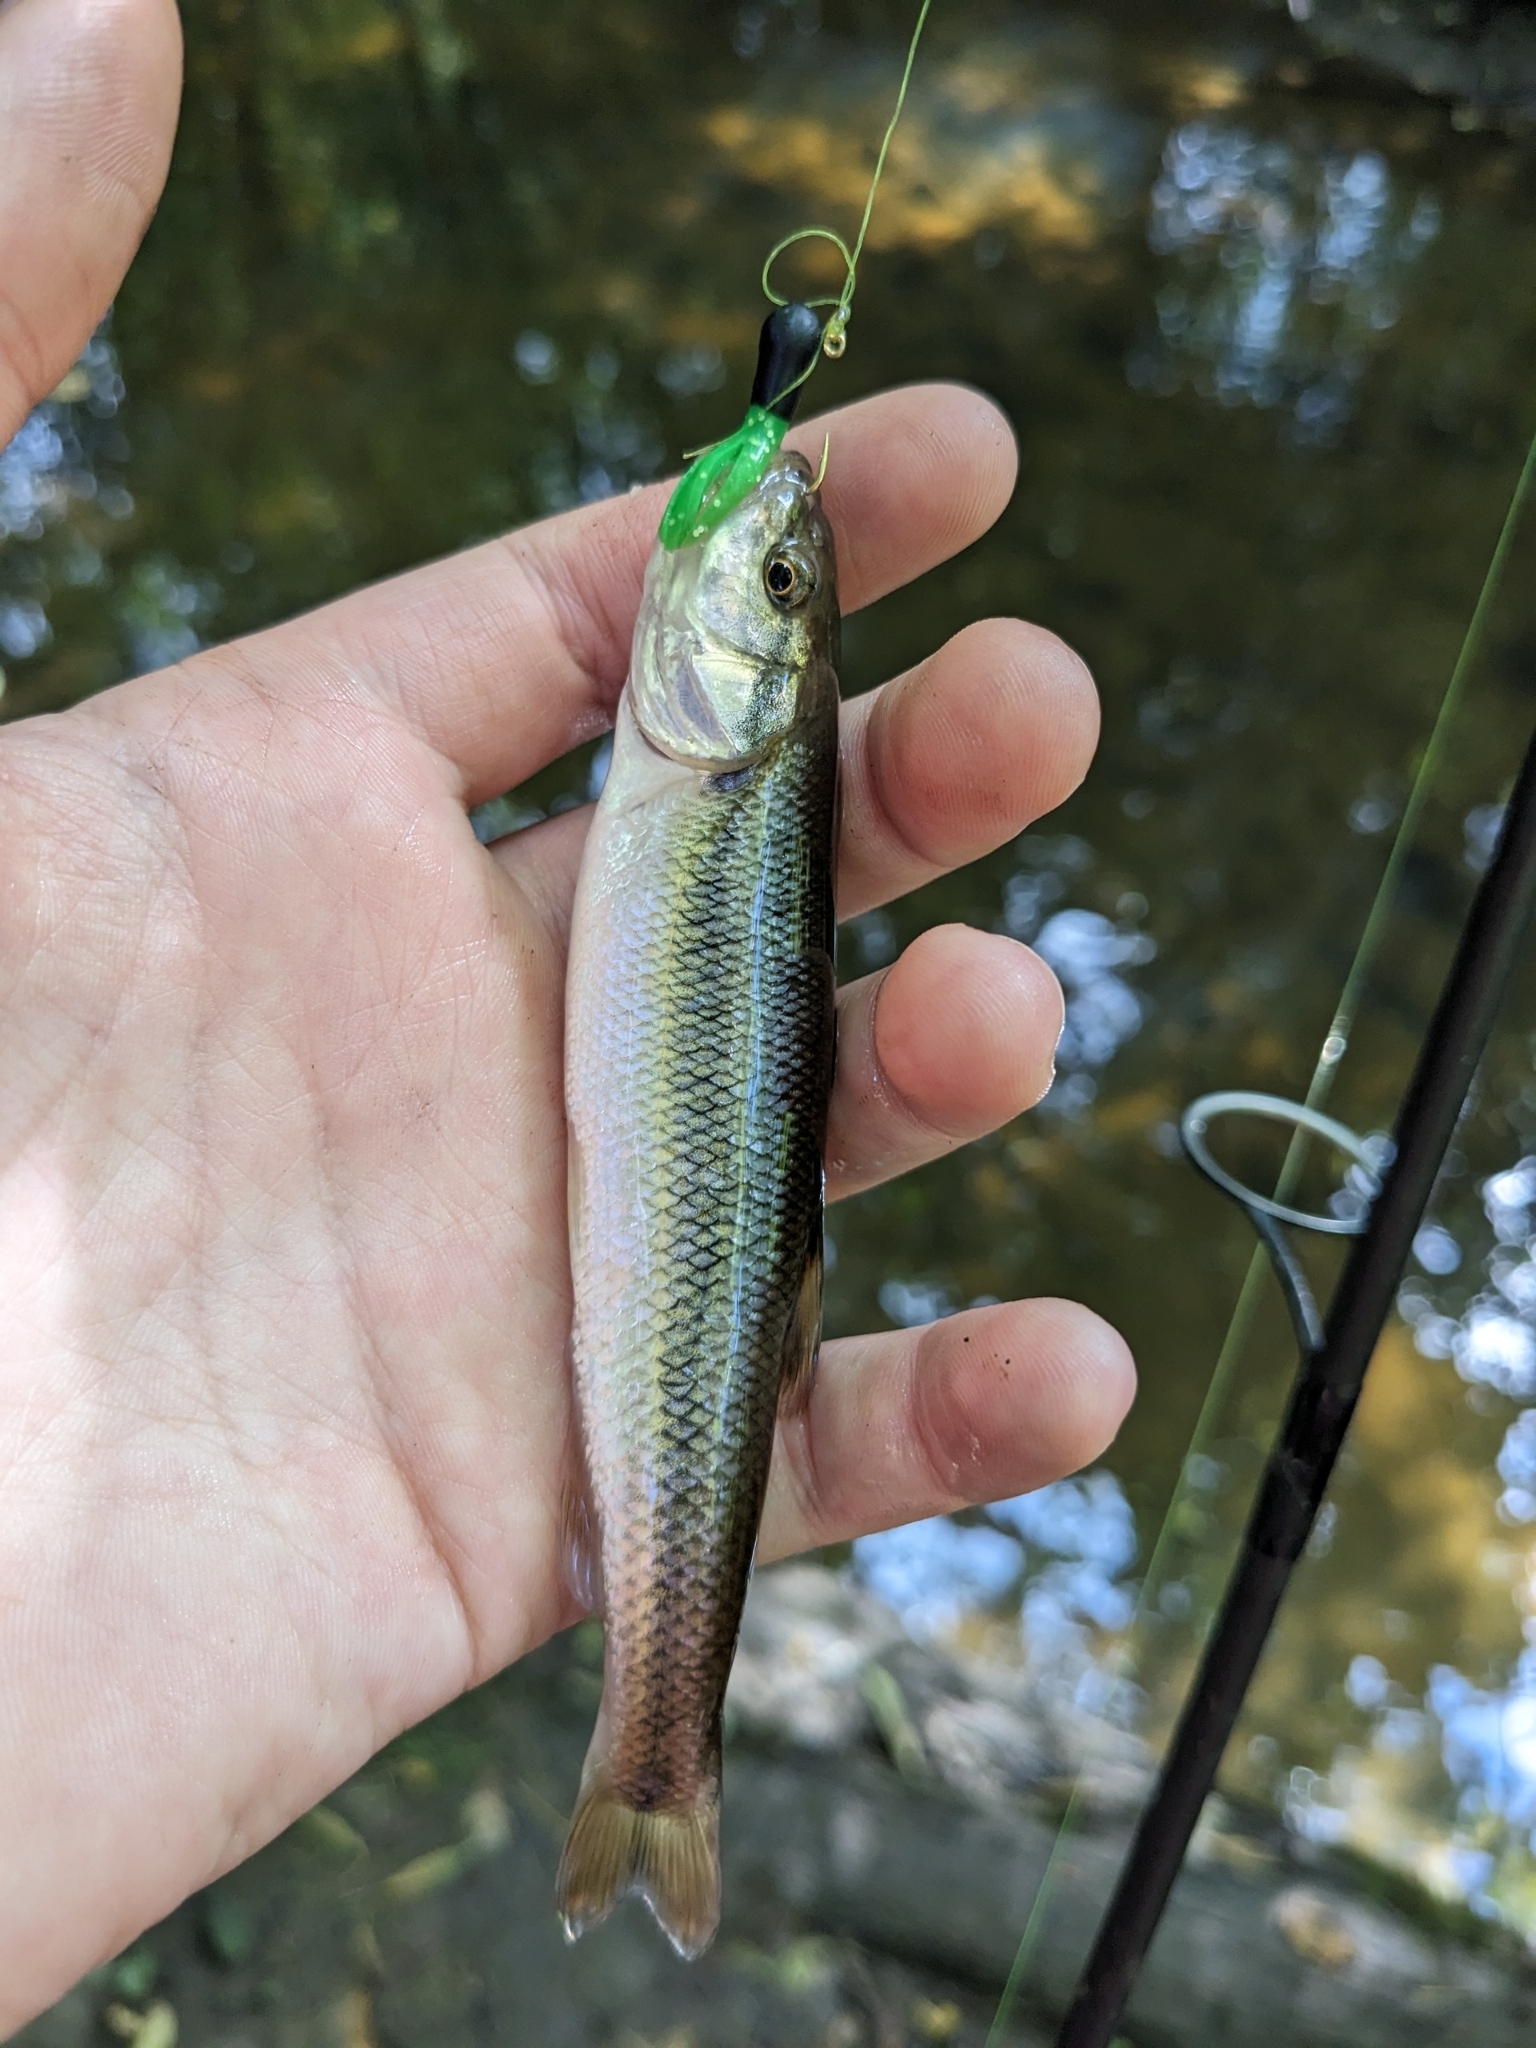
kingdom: Animalia
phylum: Chordata
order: Cypriniformes
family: Cyprinidae
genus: Semotilus
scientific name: Semotilus atromaculatus
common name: Creek chub
